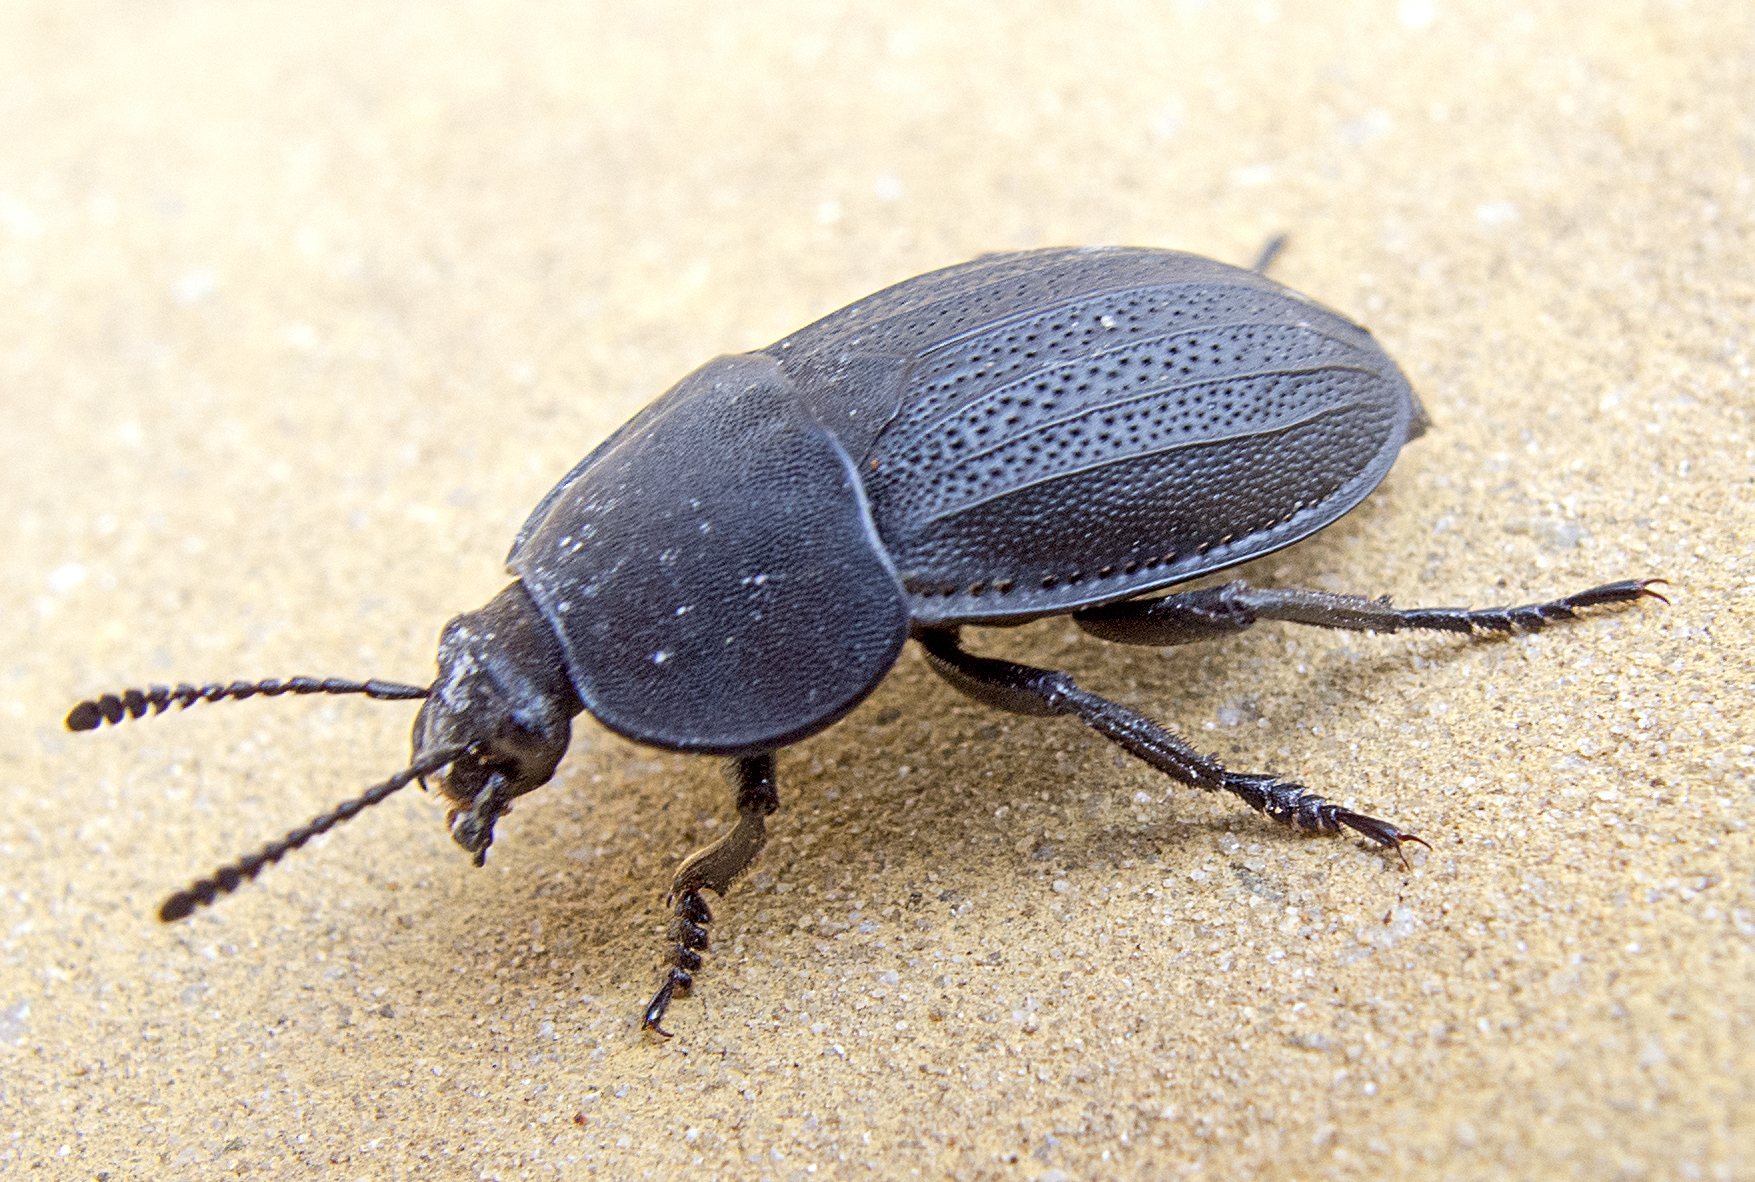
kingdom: Animalia
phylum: Arthropoda
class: Insecta
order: Coleoptera
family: Staphylinidae
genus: Silpha
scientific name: Silpha obscura
